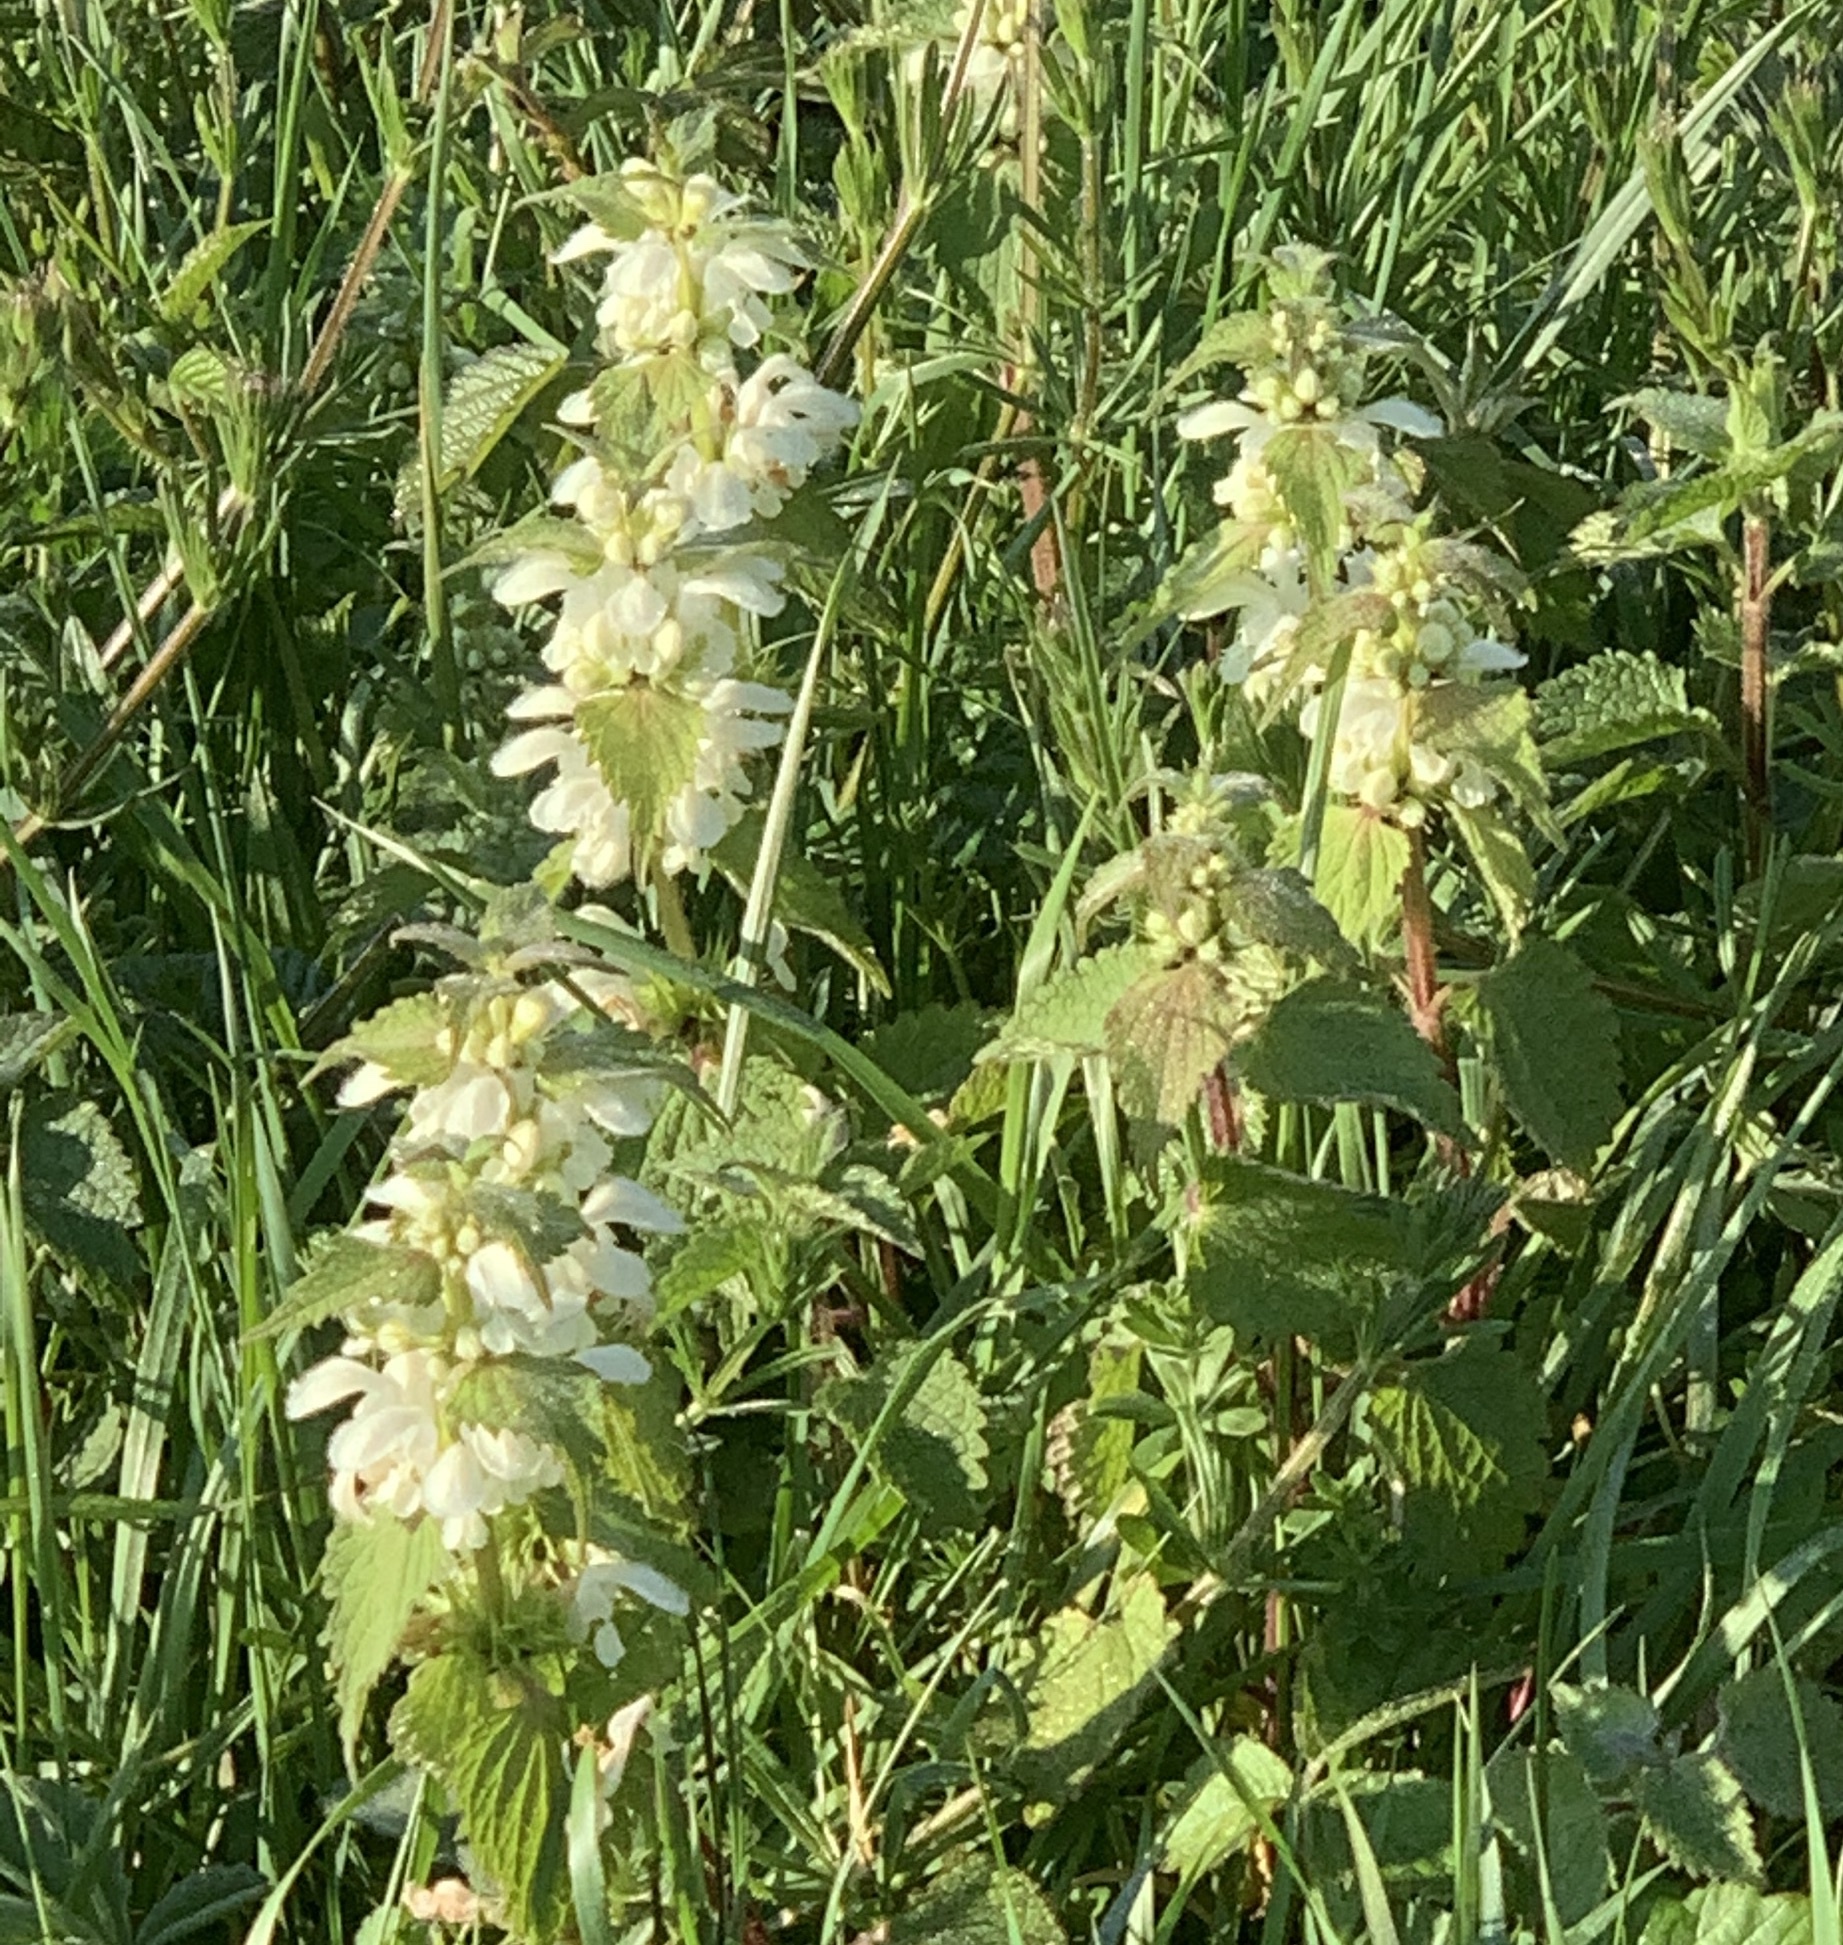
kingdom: Plantae
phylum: Tracheophyta
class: Magnoliopsida
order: Lamiales
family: Lamiaceae
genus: Lamium
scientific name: Lamium album
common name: White dead-nettle
